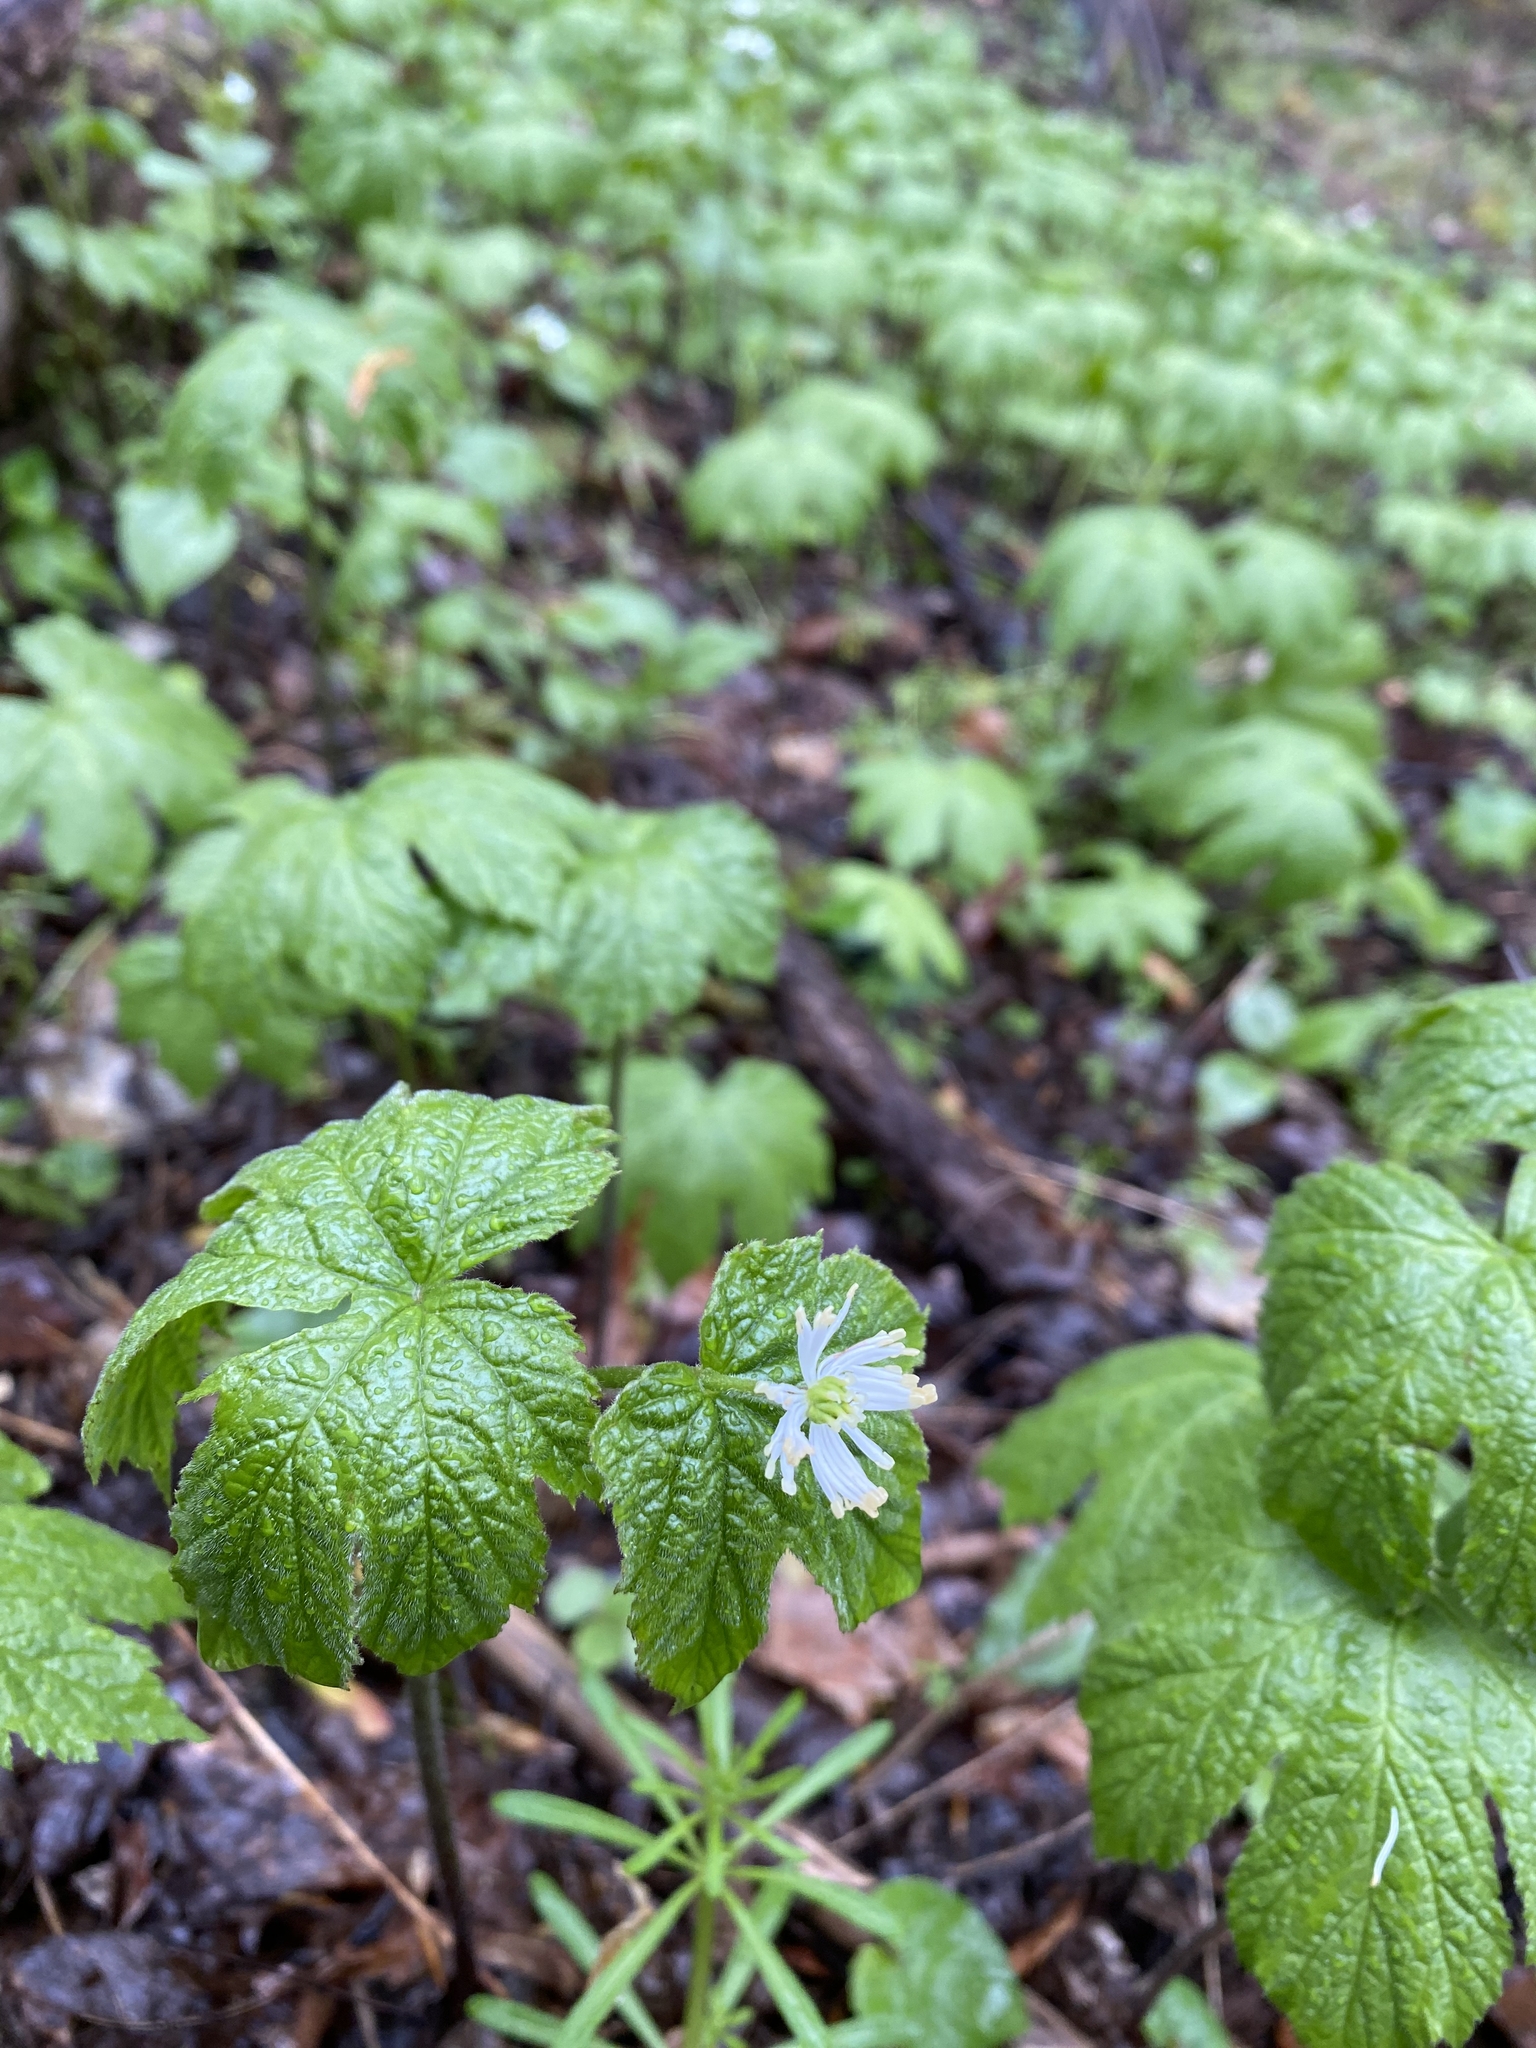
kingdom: Plantae
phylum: Tracheophyta
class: Magnoliopsida
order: Ranunculales
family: Ranunculaceae
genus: Hydrastis
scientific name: Hydrastis canadensis
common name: Goldenseal
